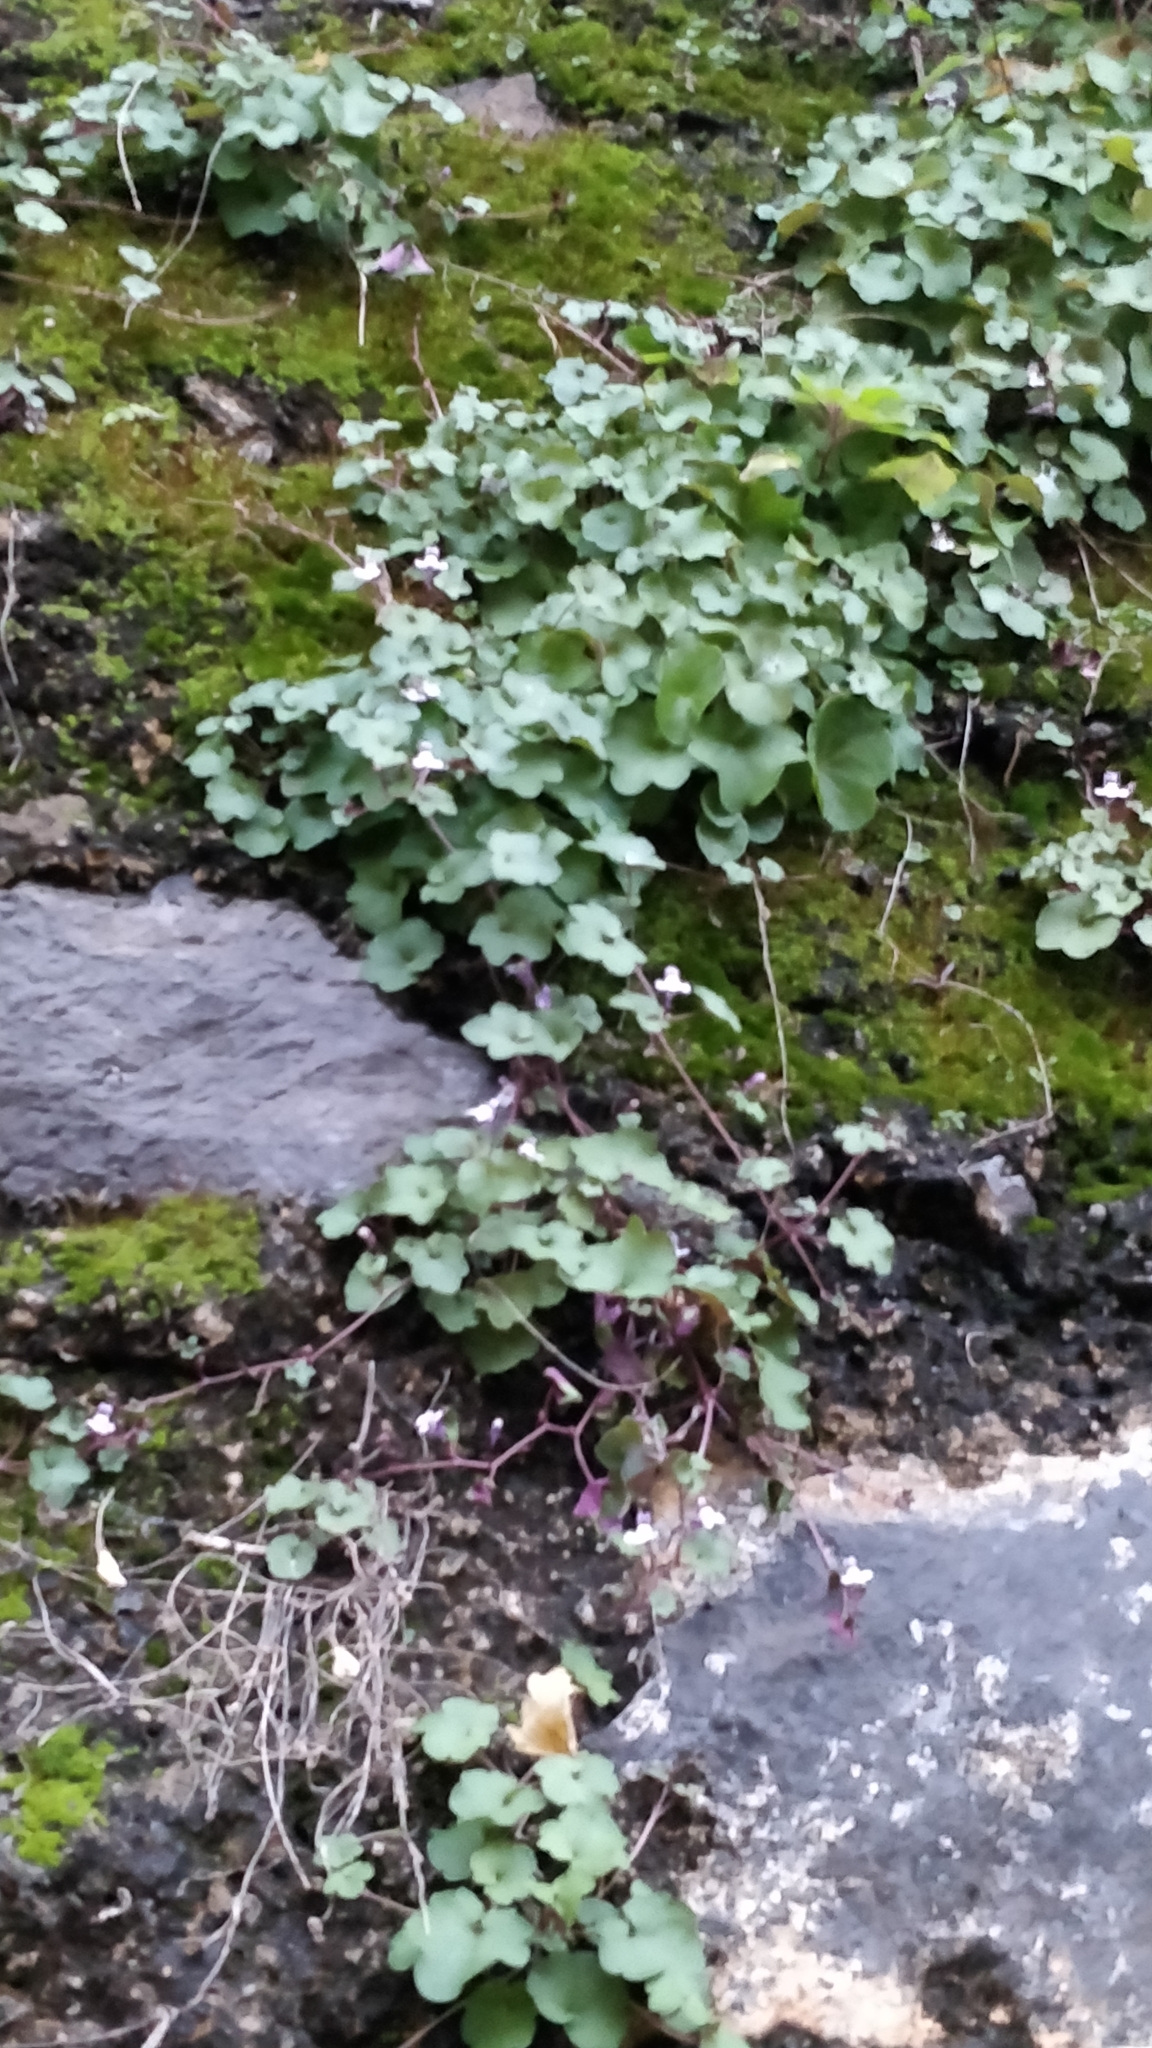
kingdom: Plantae
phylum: Tracheophyta
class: Magnoliopsida
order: Lamiales
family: Plantaginaceae
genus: Cymbalaria
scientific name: Cymbalaria muralis
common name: Ivy-leaved toadflax
